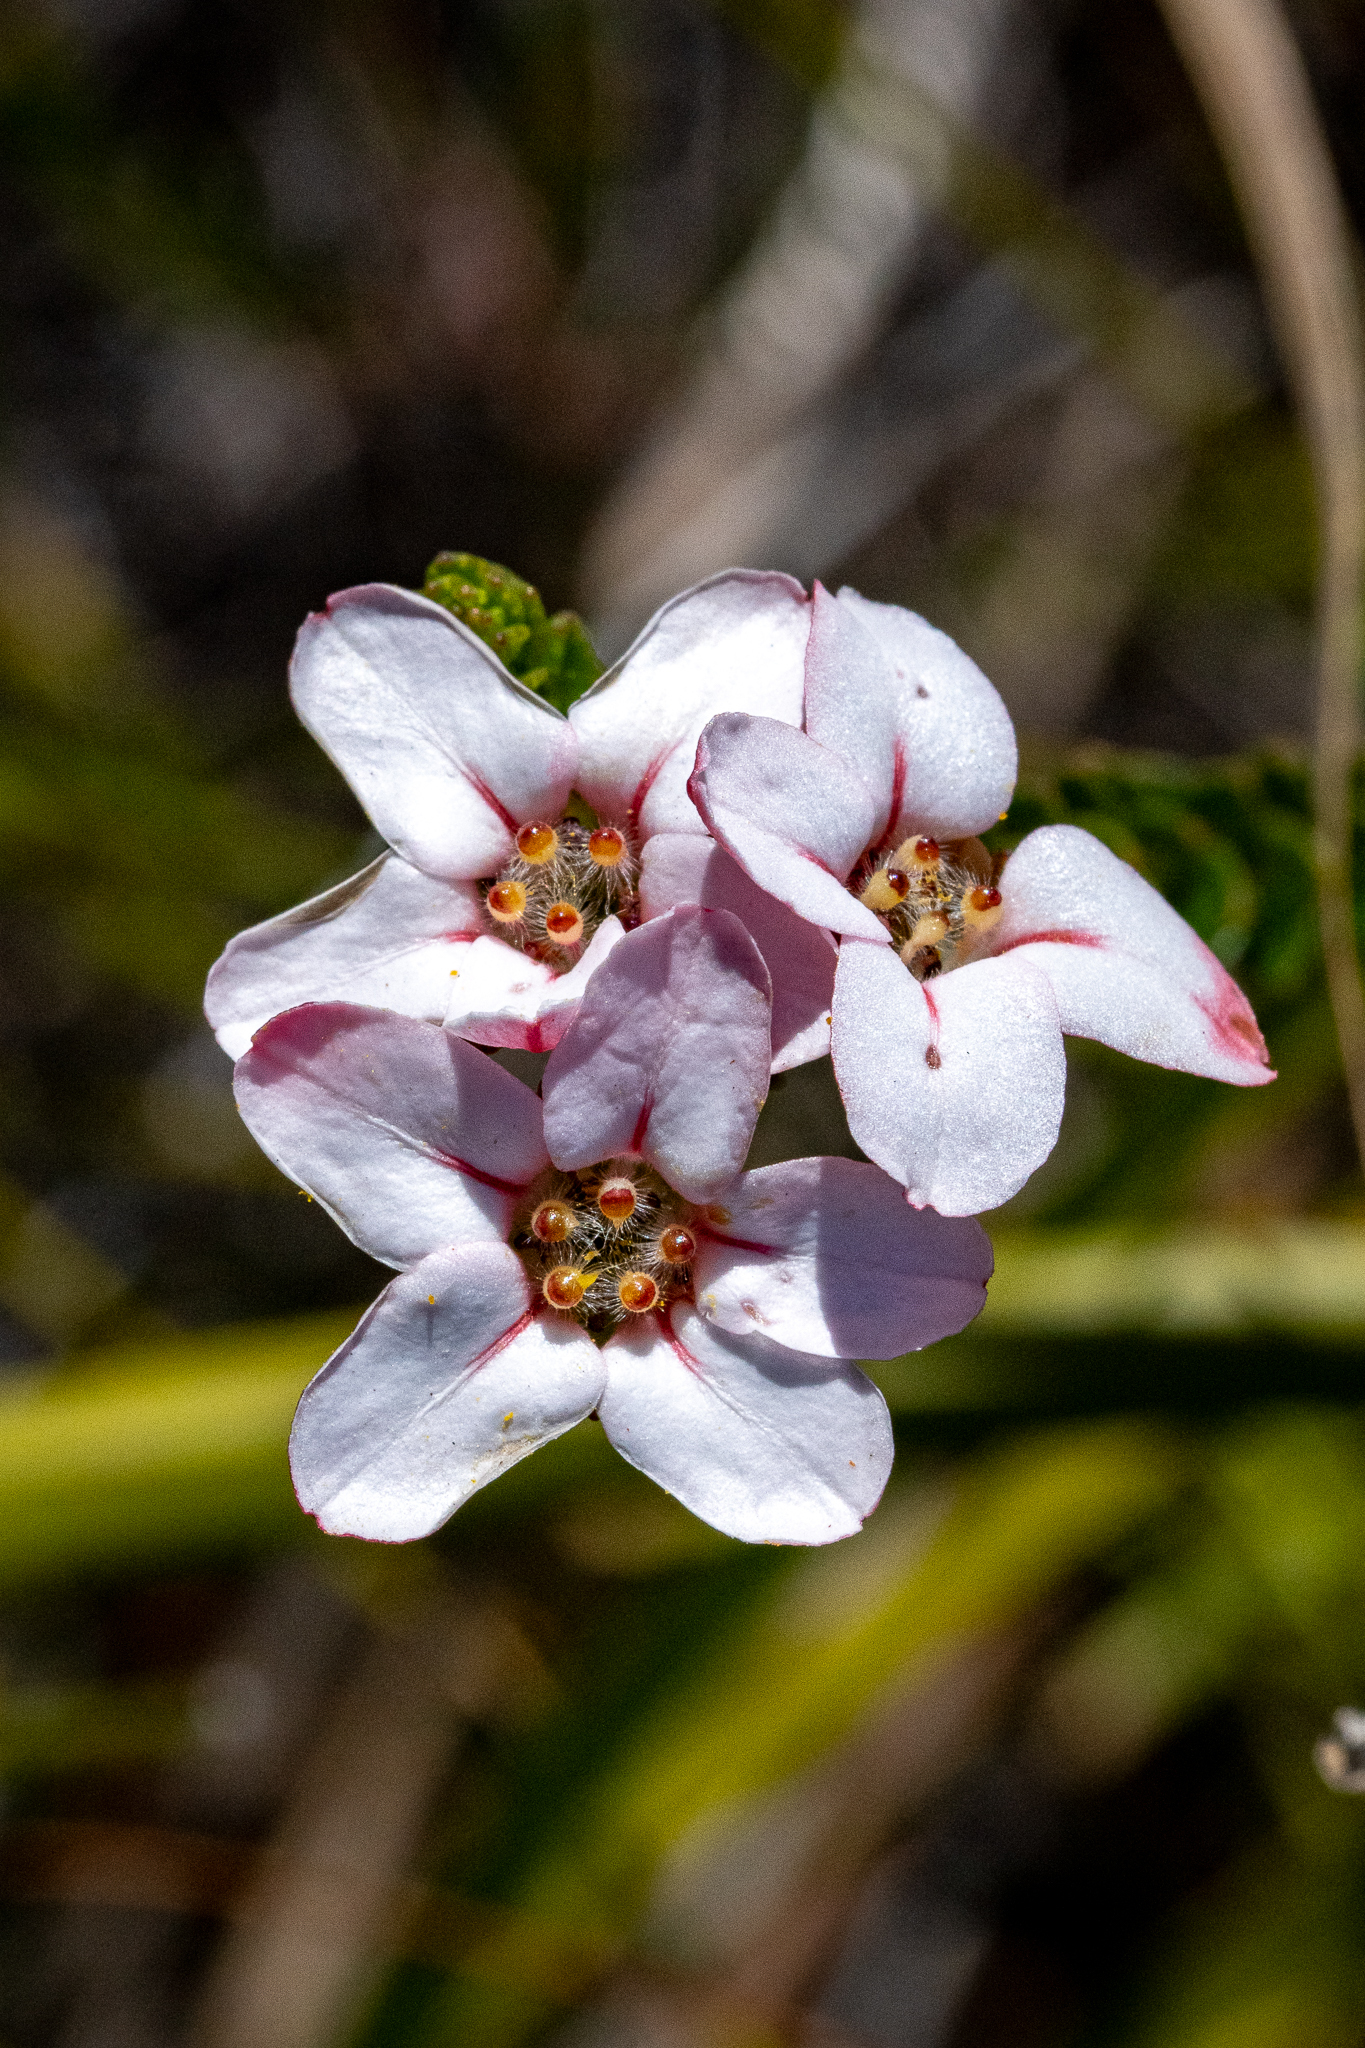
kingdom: Plantae
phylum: Tracheophyta
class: Magnoliopsida
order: Sapindales
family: Rutaceae
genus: Adenandra
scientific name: Adenandra brachyphylla
